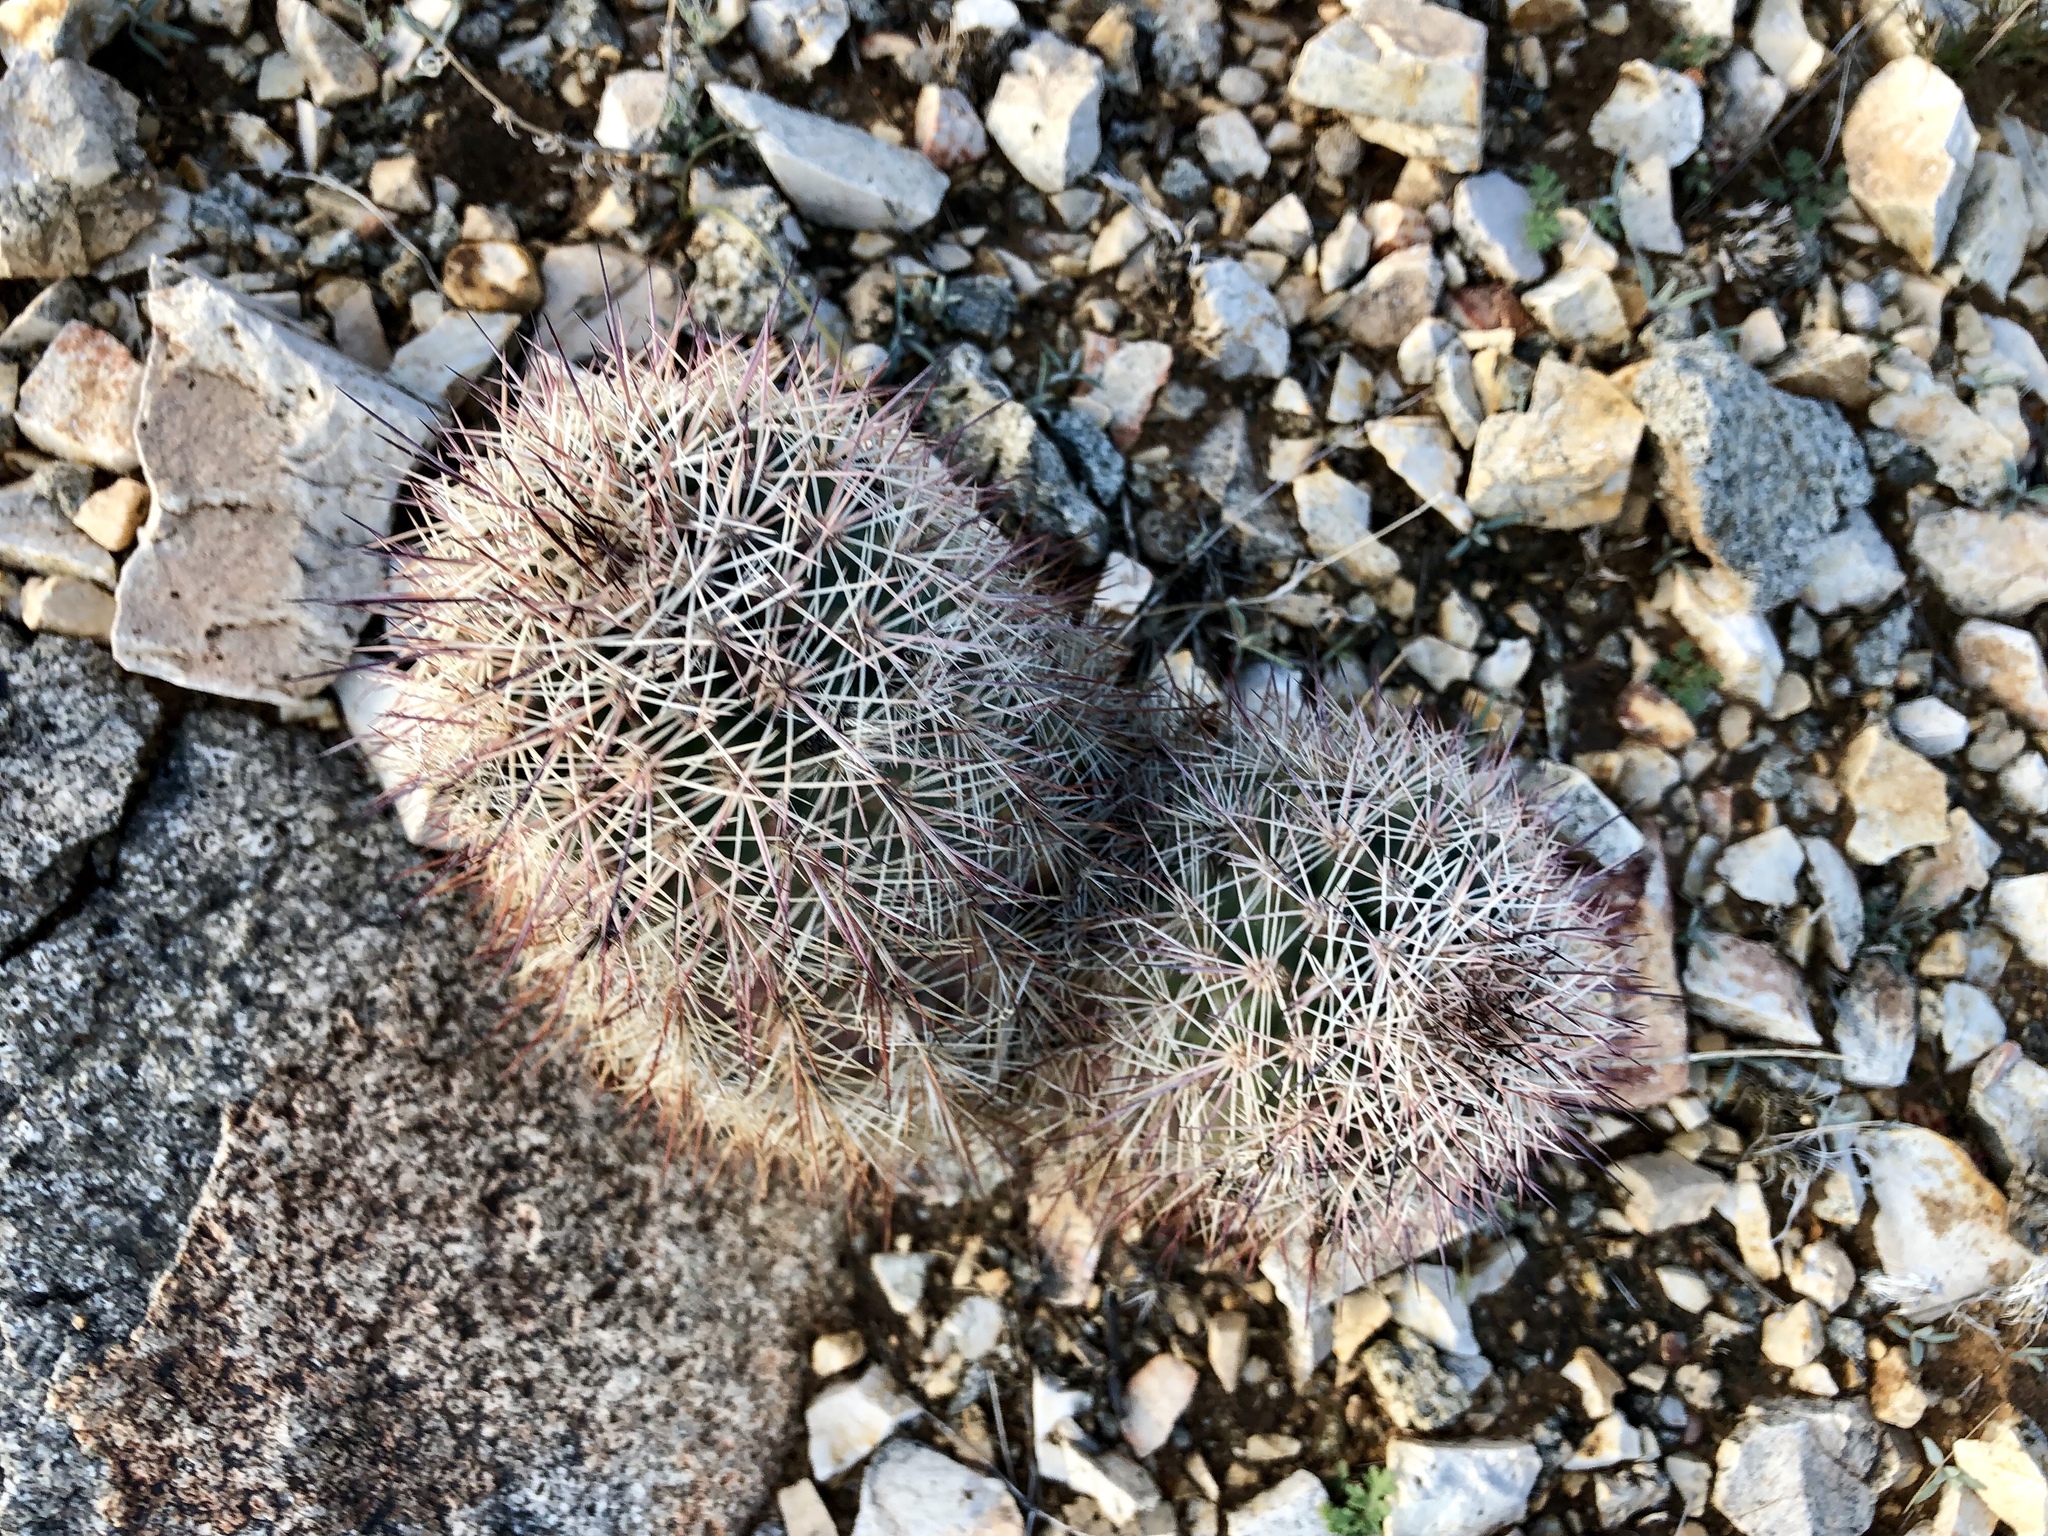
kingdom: Plantae
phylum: Tracheophyta
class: Magnoliopsida
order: Caryophyllales
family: Cactaceae
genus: Echinocereus
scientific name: Echinocereus roetteri
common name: Lloyd's hedgehog cactus
